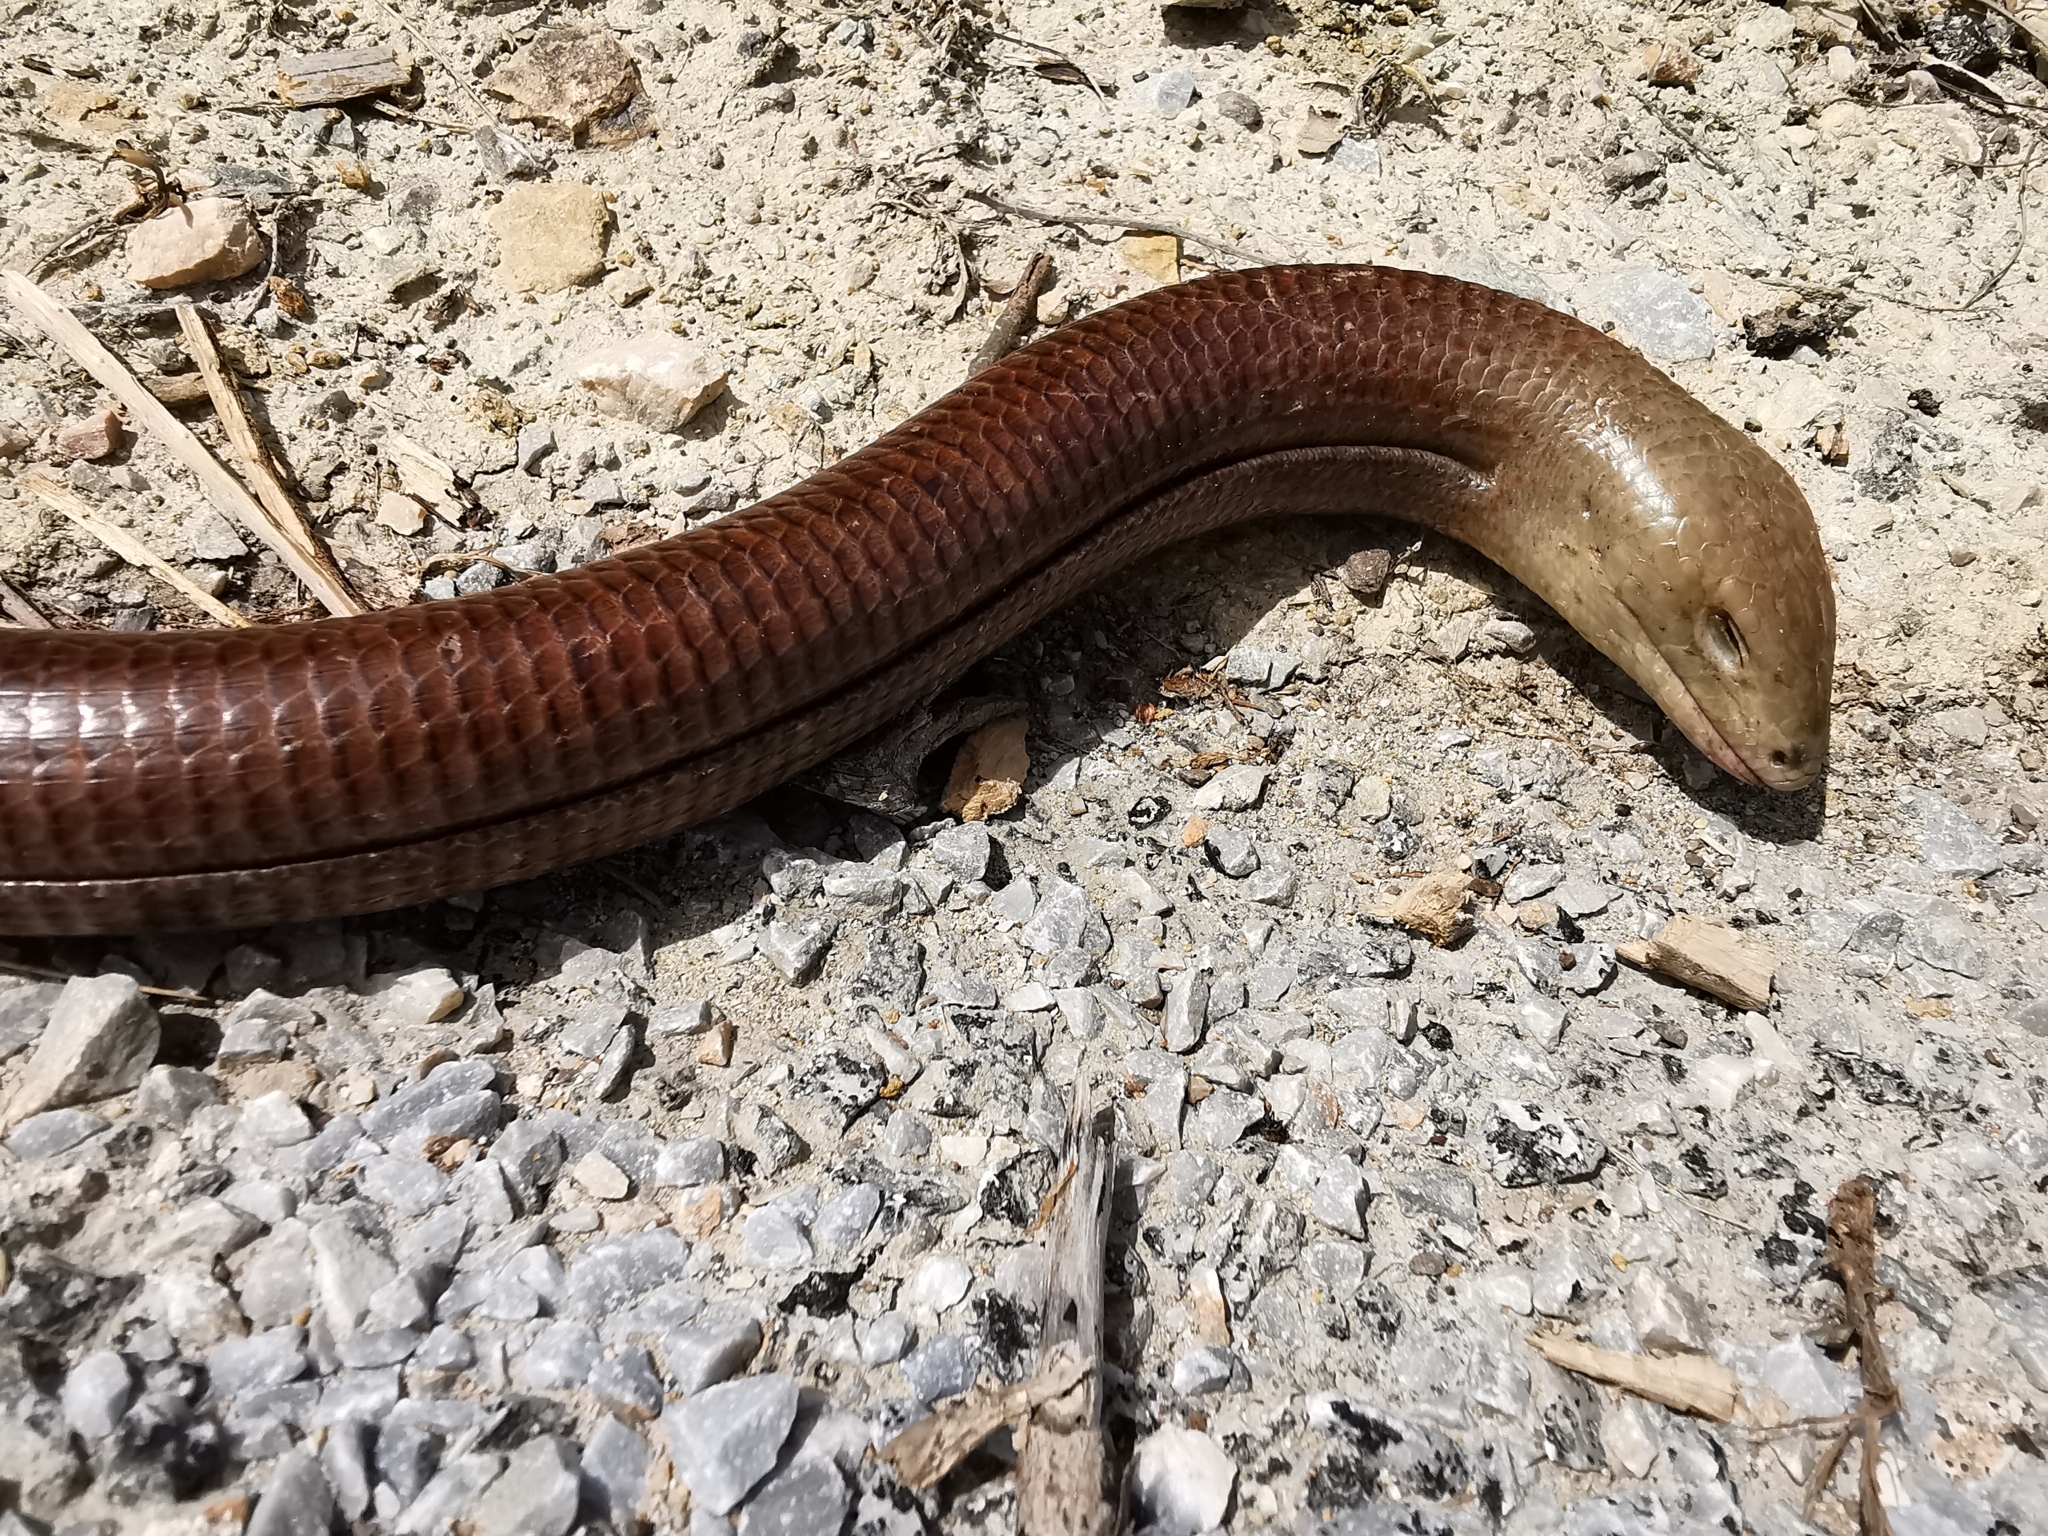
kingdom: Animalia
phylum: Chordata
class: Squamata
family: Anguidae
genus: Pseudopus
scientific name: Pseudopus apodus
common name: European glass lizard
